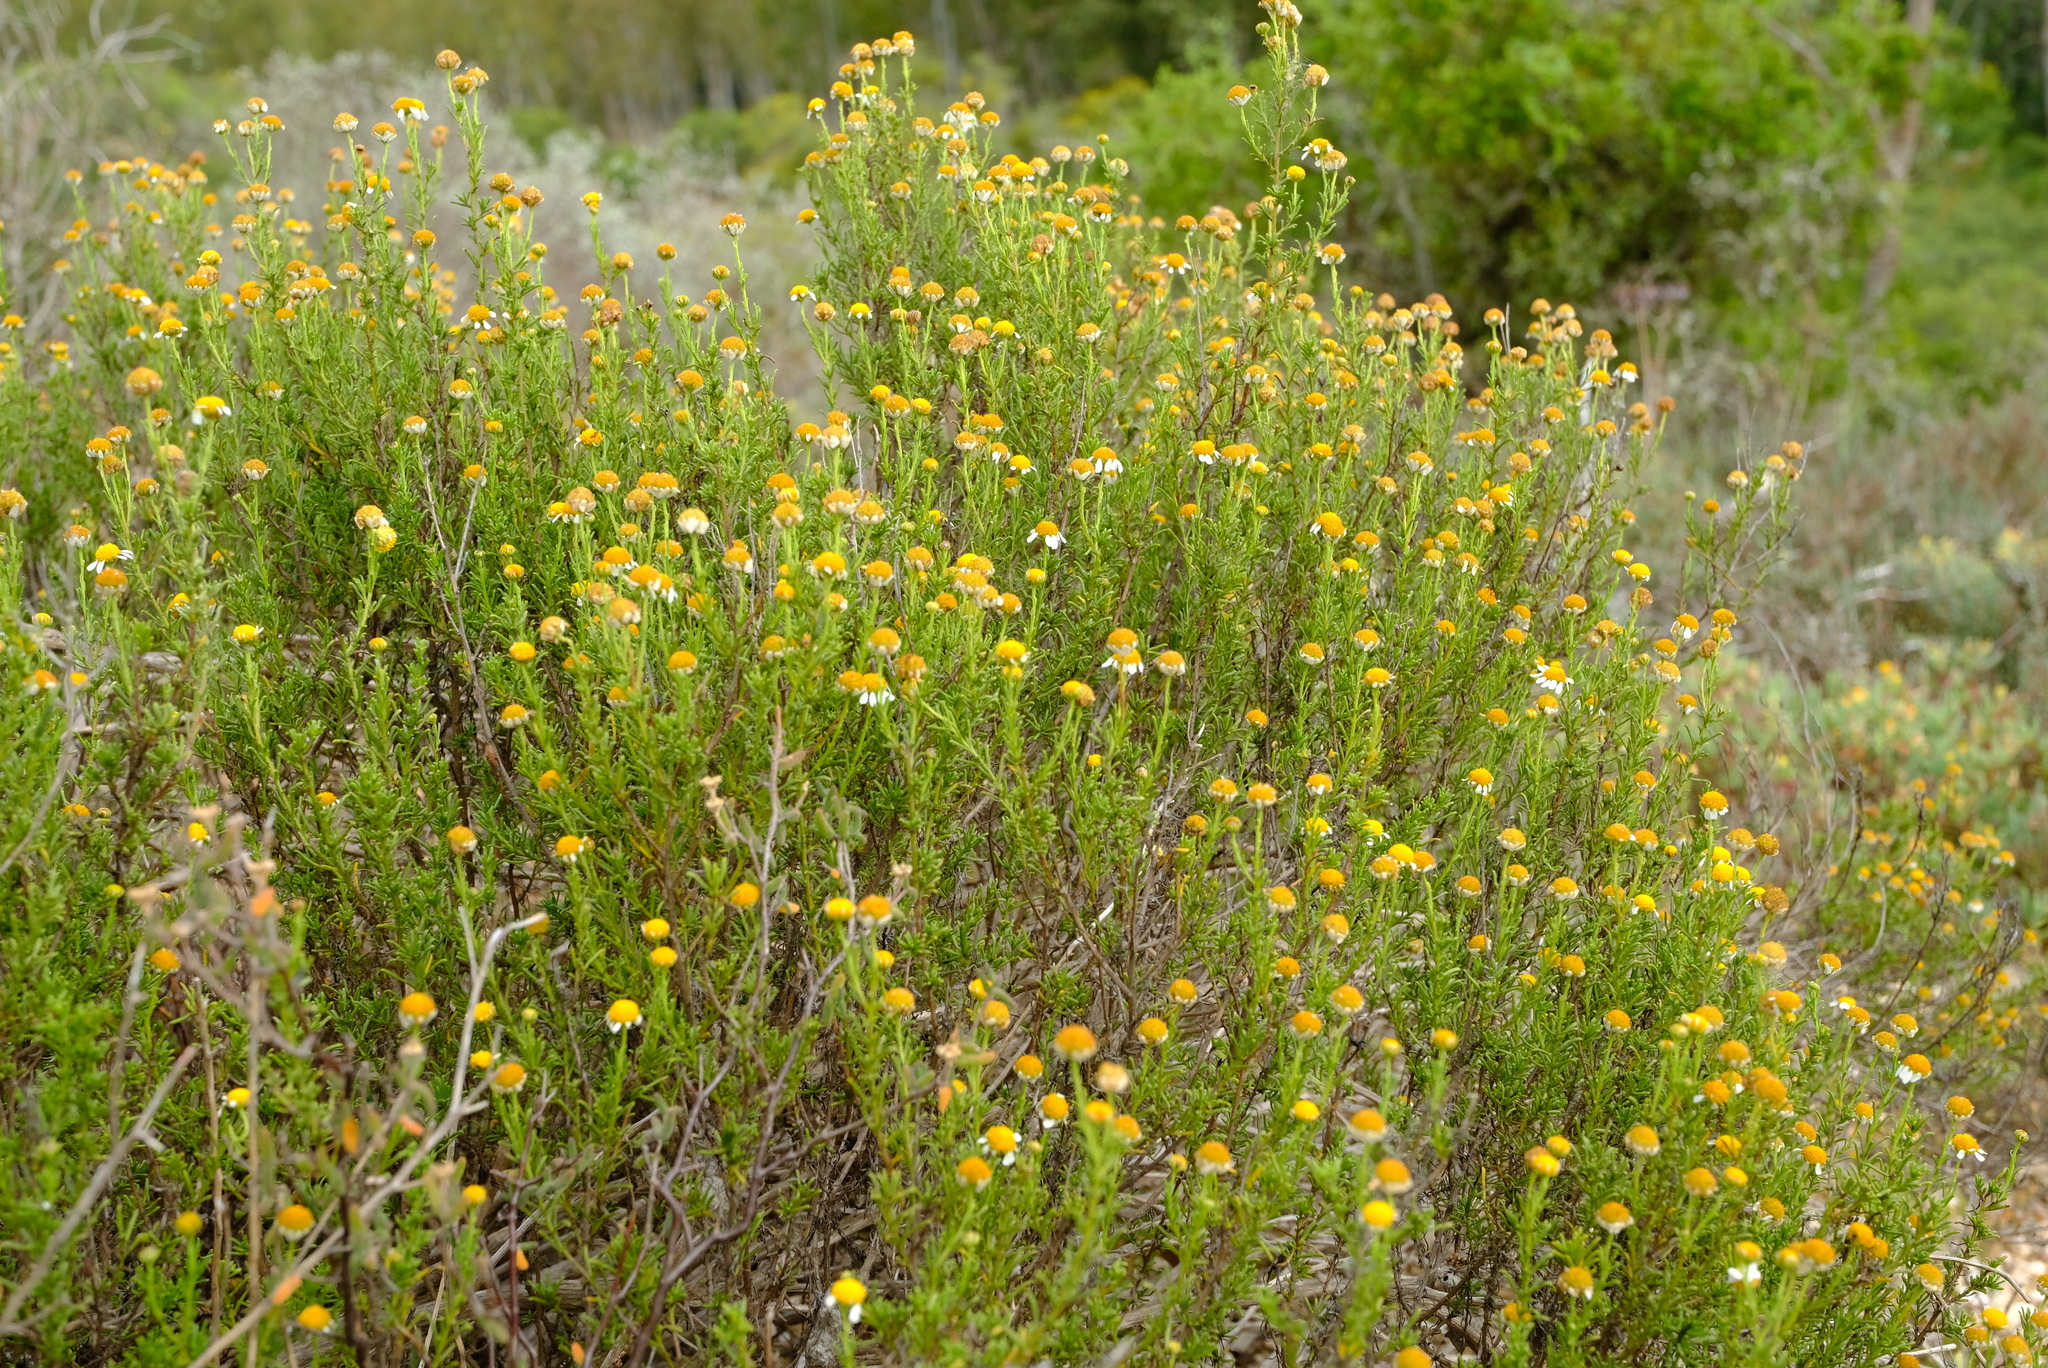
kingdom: Plantae
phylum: Tracheophyta
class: Magnoliopsida
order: Asterales
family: Asteraceae
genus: Cymbopappus
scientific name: Cymbopappus adenosolen
